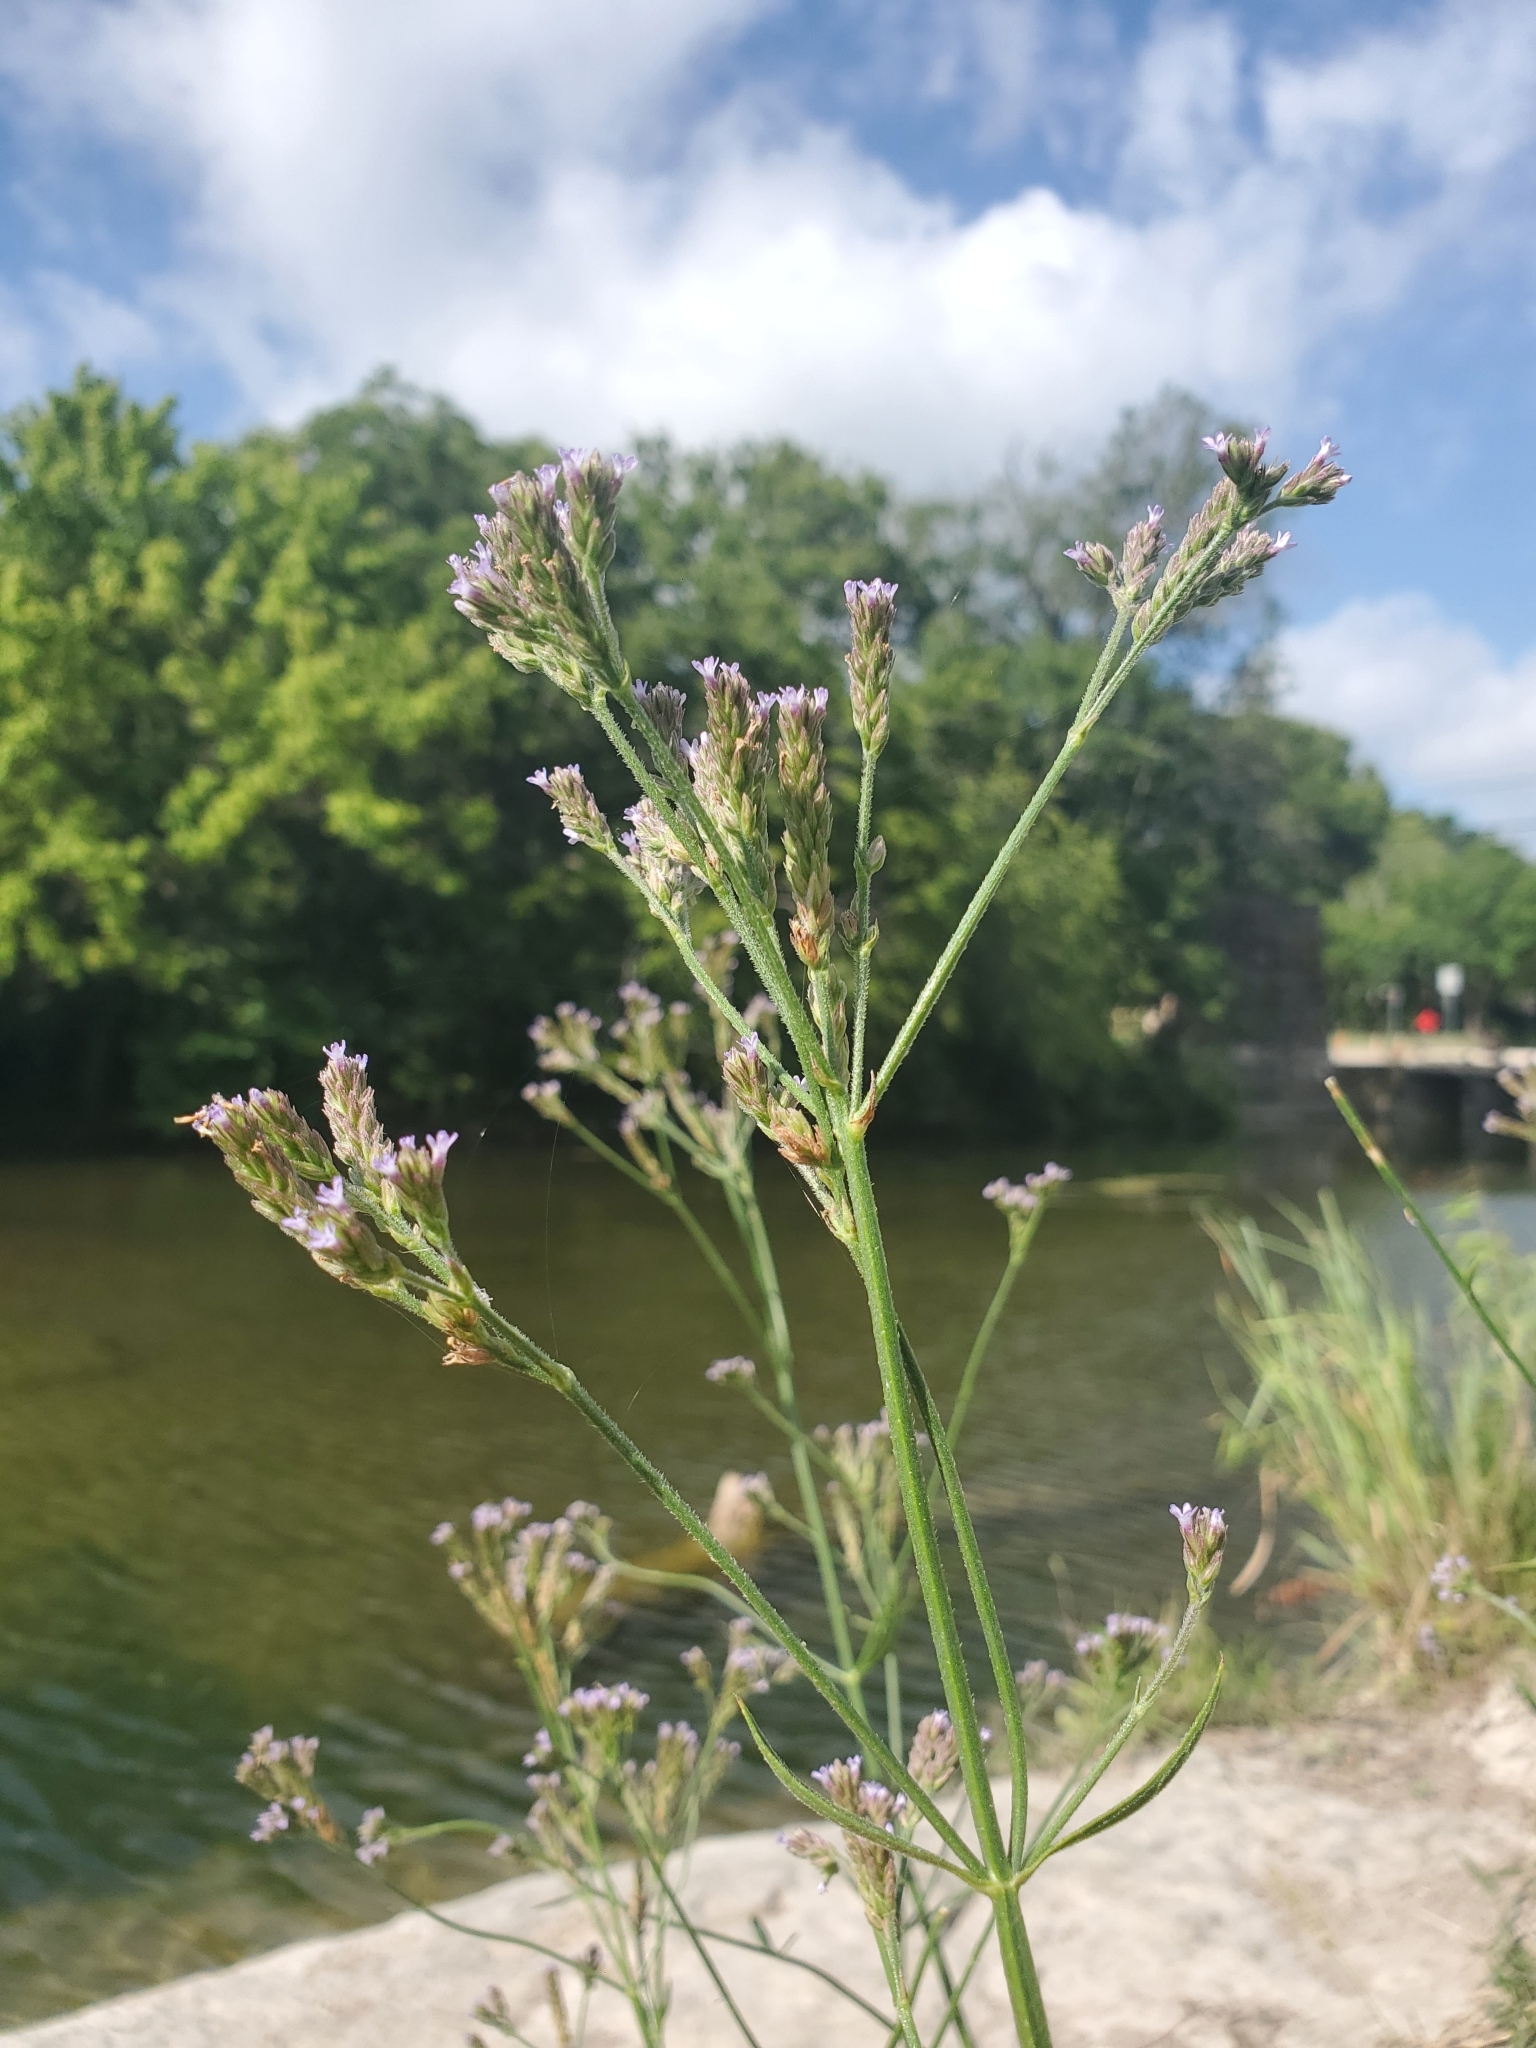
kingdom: Plantae
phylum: Tracheophyta
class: Magnoliopsida
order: Lamiales
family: Verbenaceae
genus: Verbena
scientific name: Verbena brasiliensis
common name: Brazilian vervain
